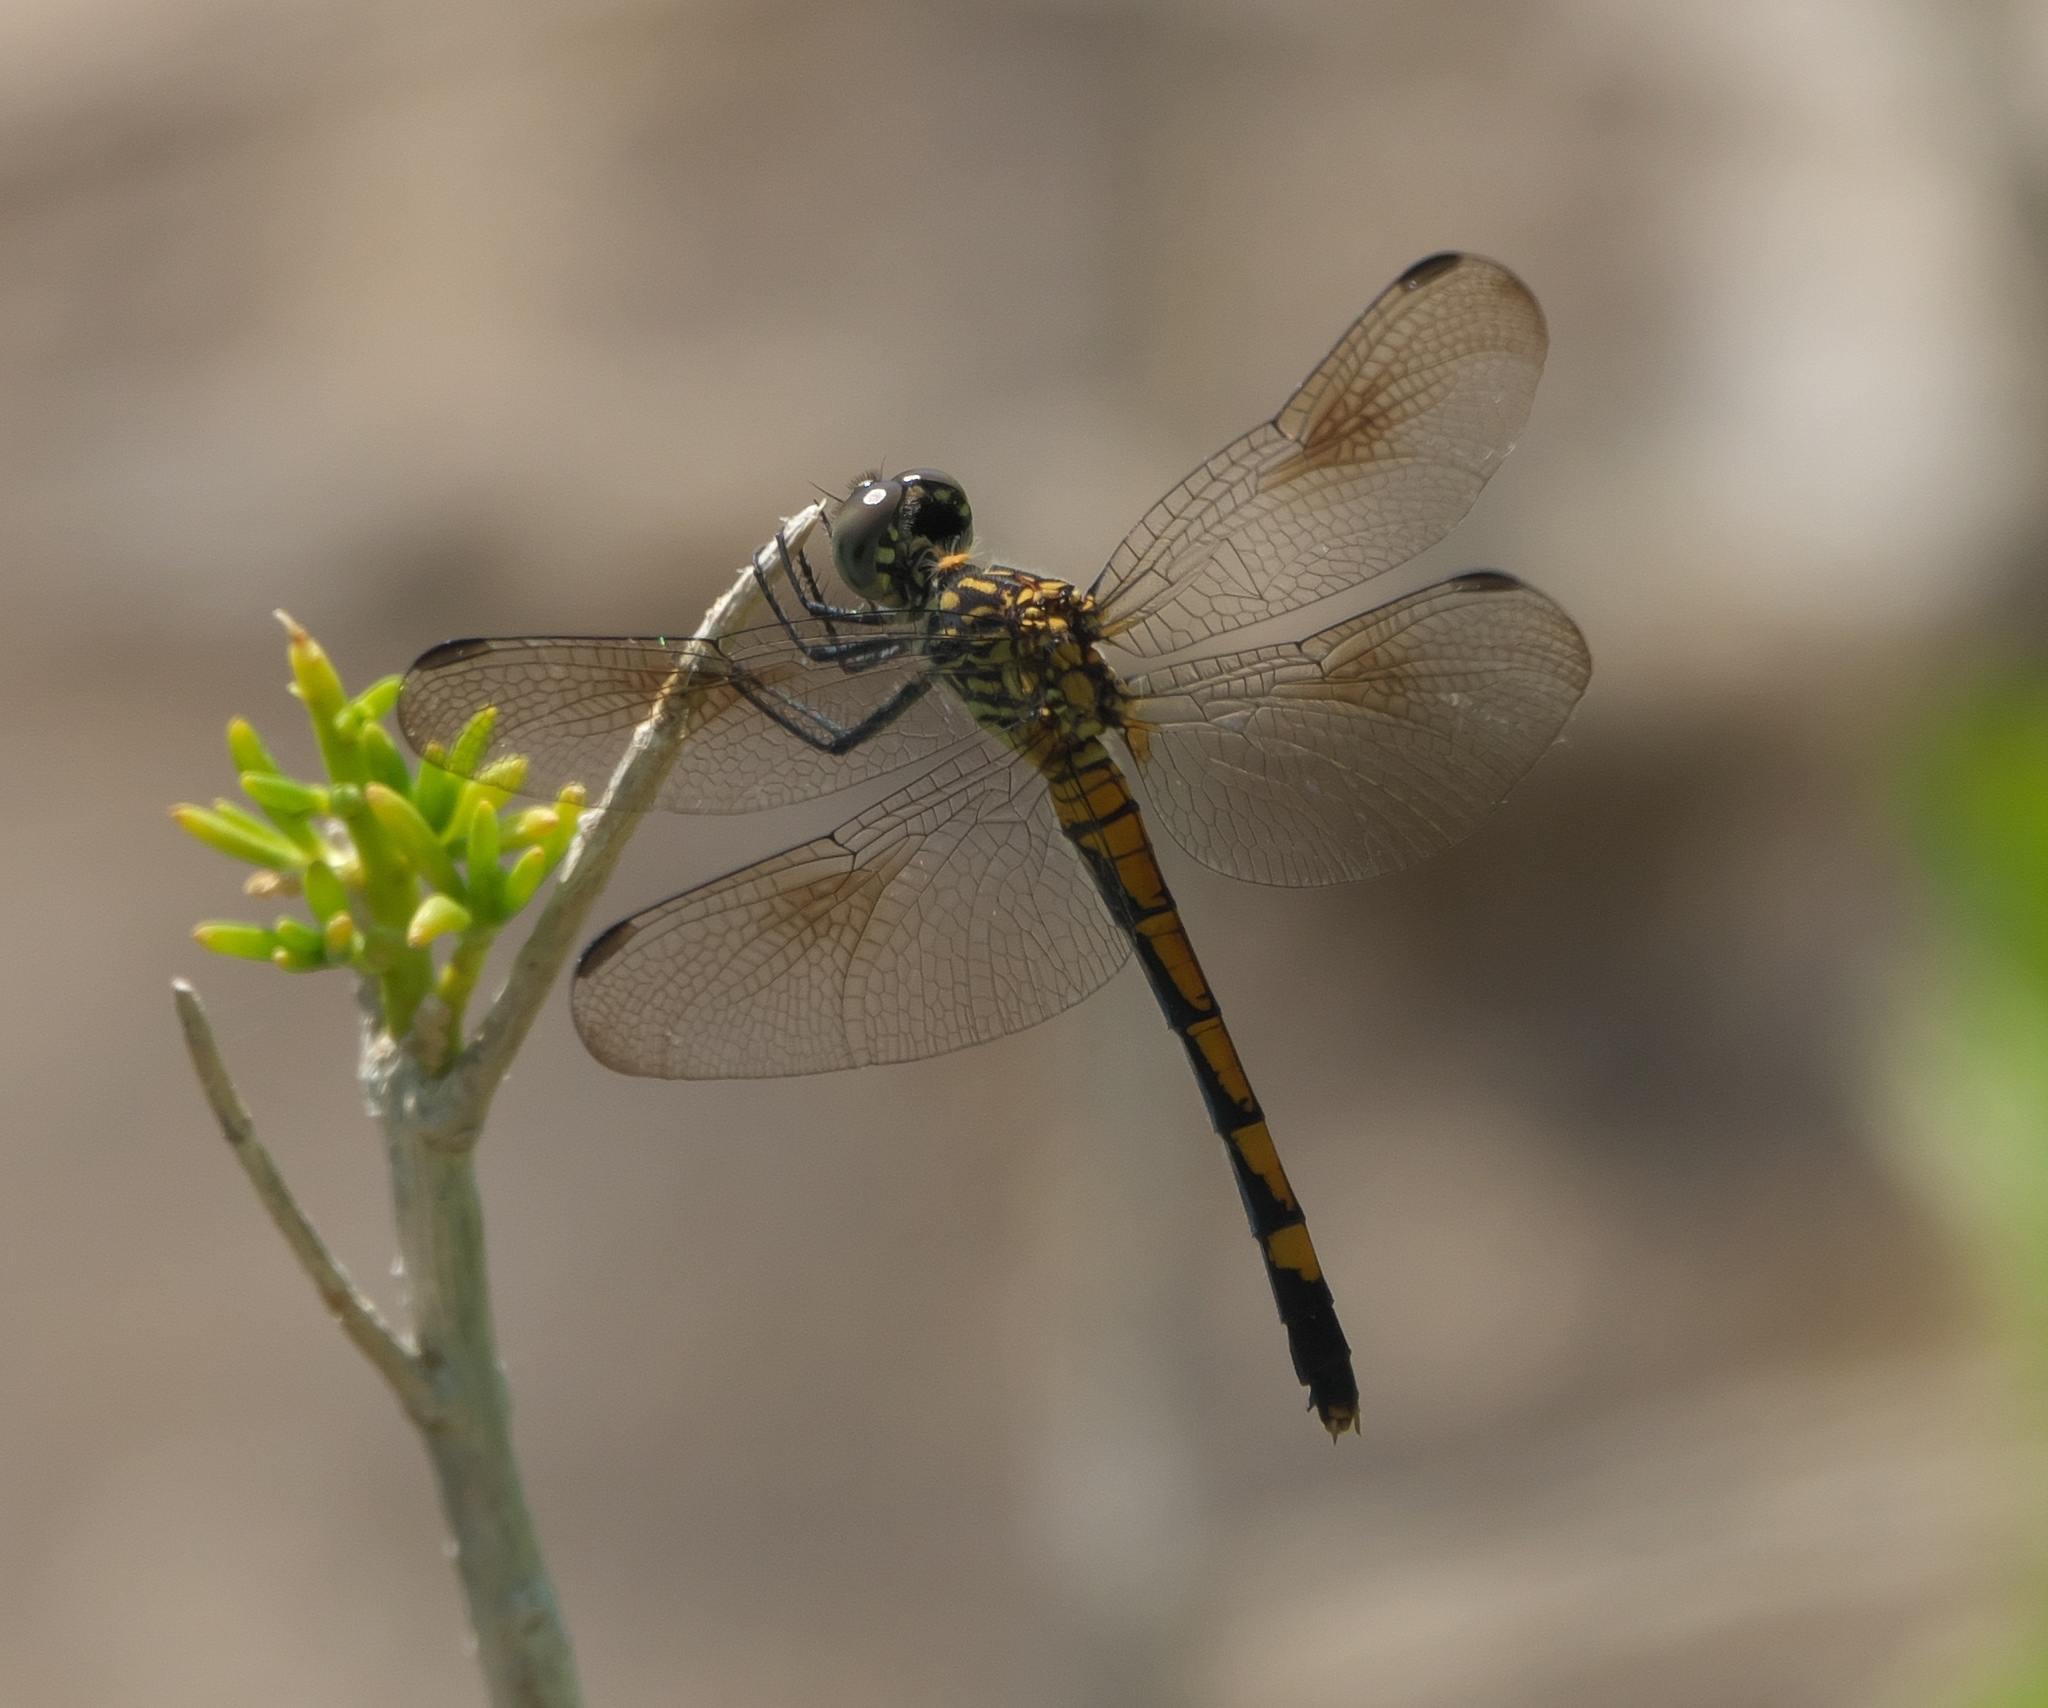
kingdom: Animalia
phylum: Arthropoda
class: Insecta
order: Odonata
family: Libellulidae
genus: Erythrodiplax
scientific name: Erythrodiplax berenice
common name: Seaside dragonlet
